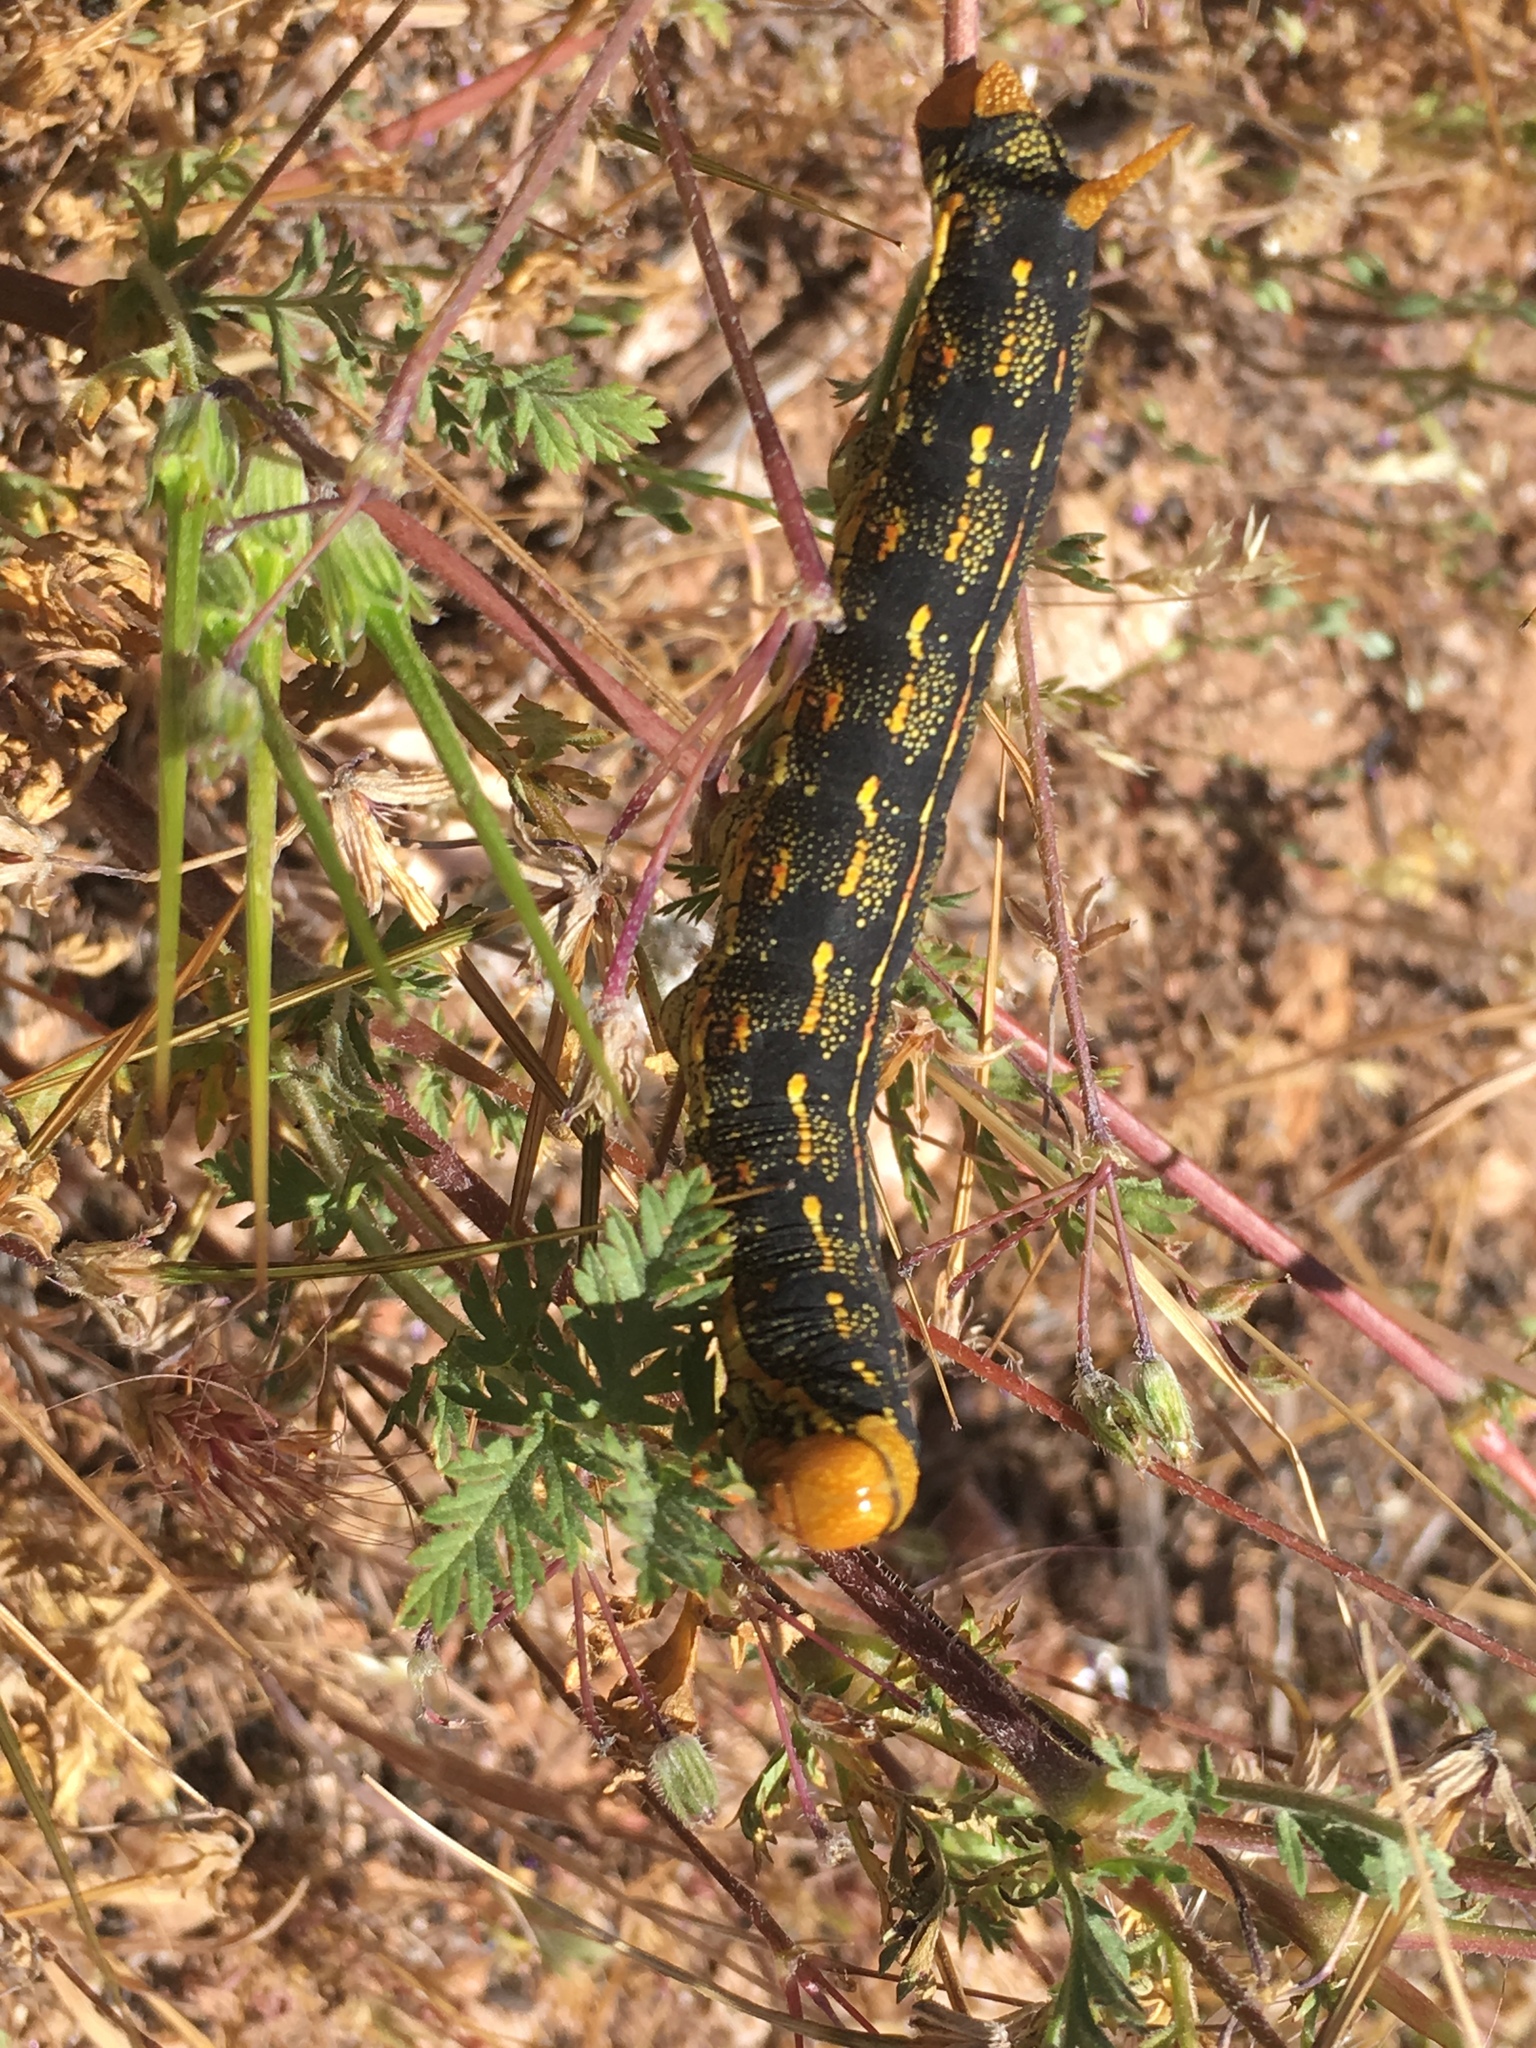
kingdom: Animalia
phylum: Arthropoda
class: Insecta
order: Lepidoptera
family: Sphingidae
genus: Hyles
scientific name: Hyles lineata
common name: White-lined sphinx
